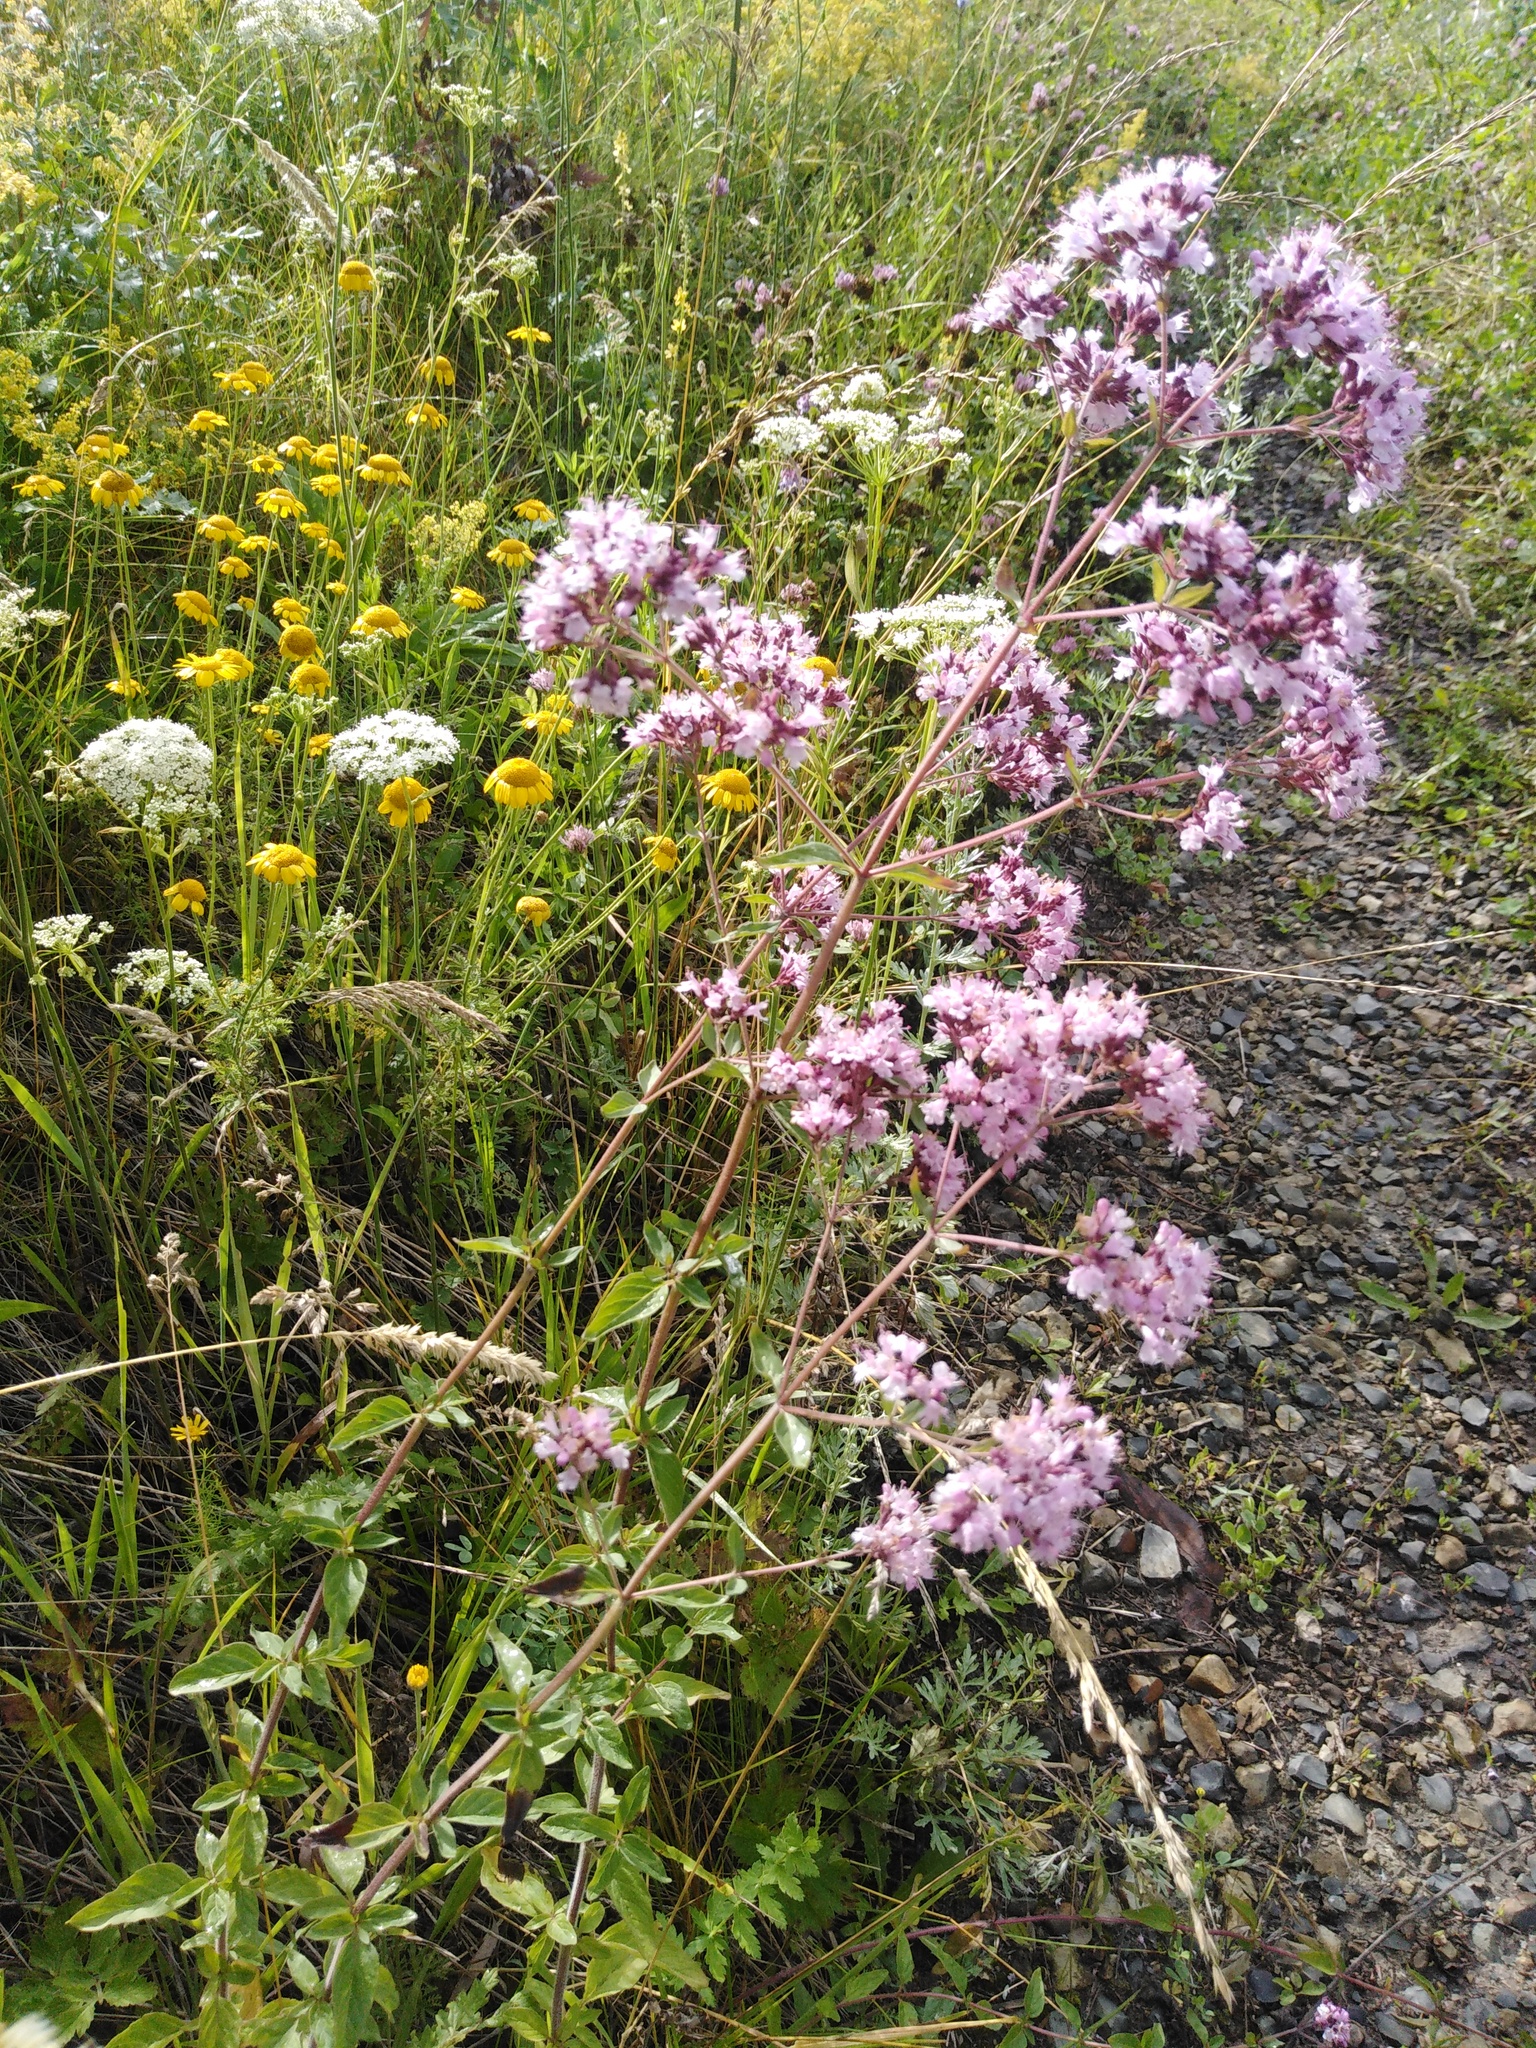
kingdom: Plantae
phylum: Tracheophyta
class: Magnoliopsida
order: Lamiales
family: Lamiaceae
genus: Origanum
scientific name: Origanum vulgare
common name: Wild marjoram
